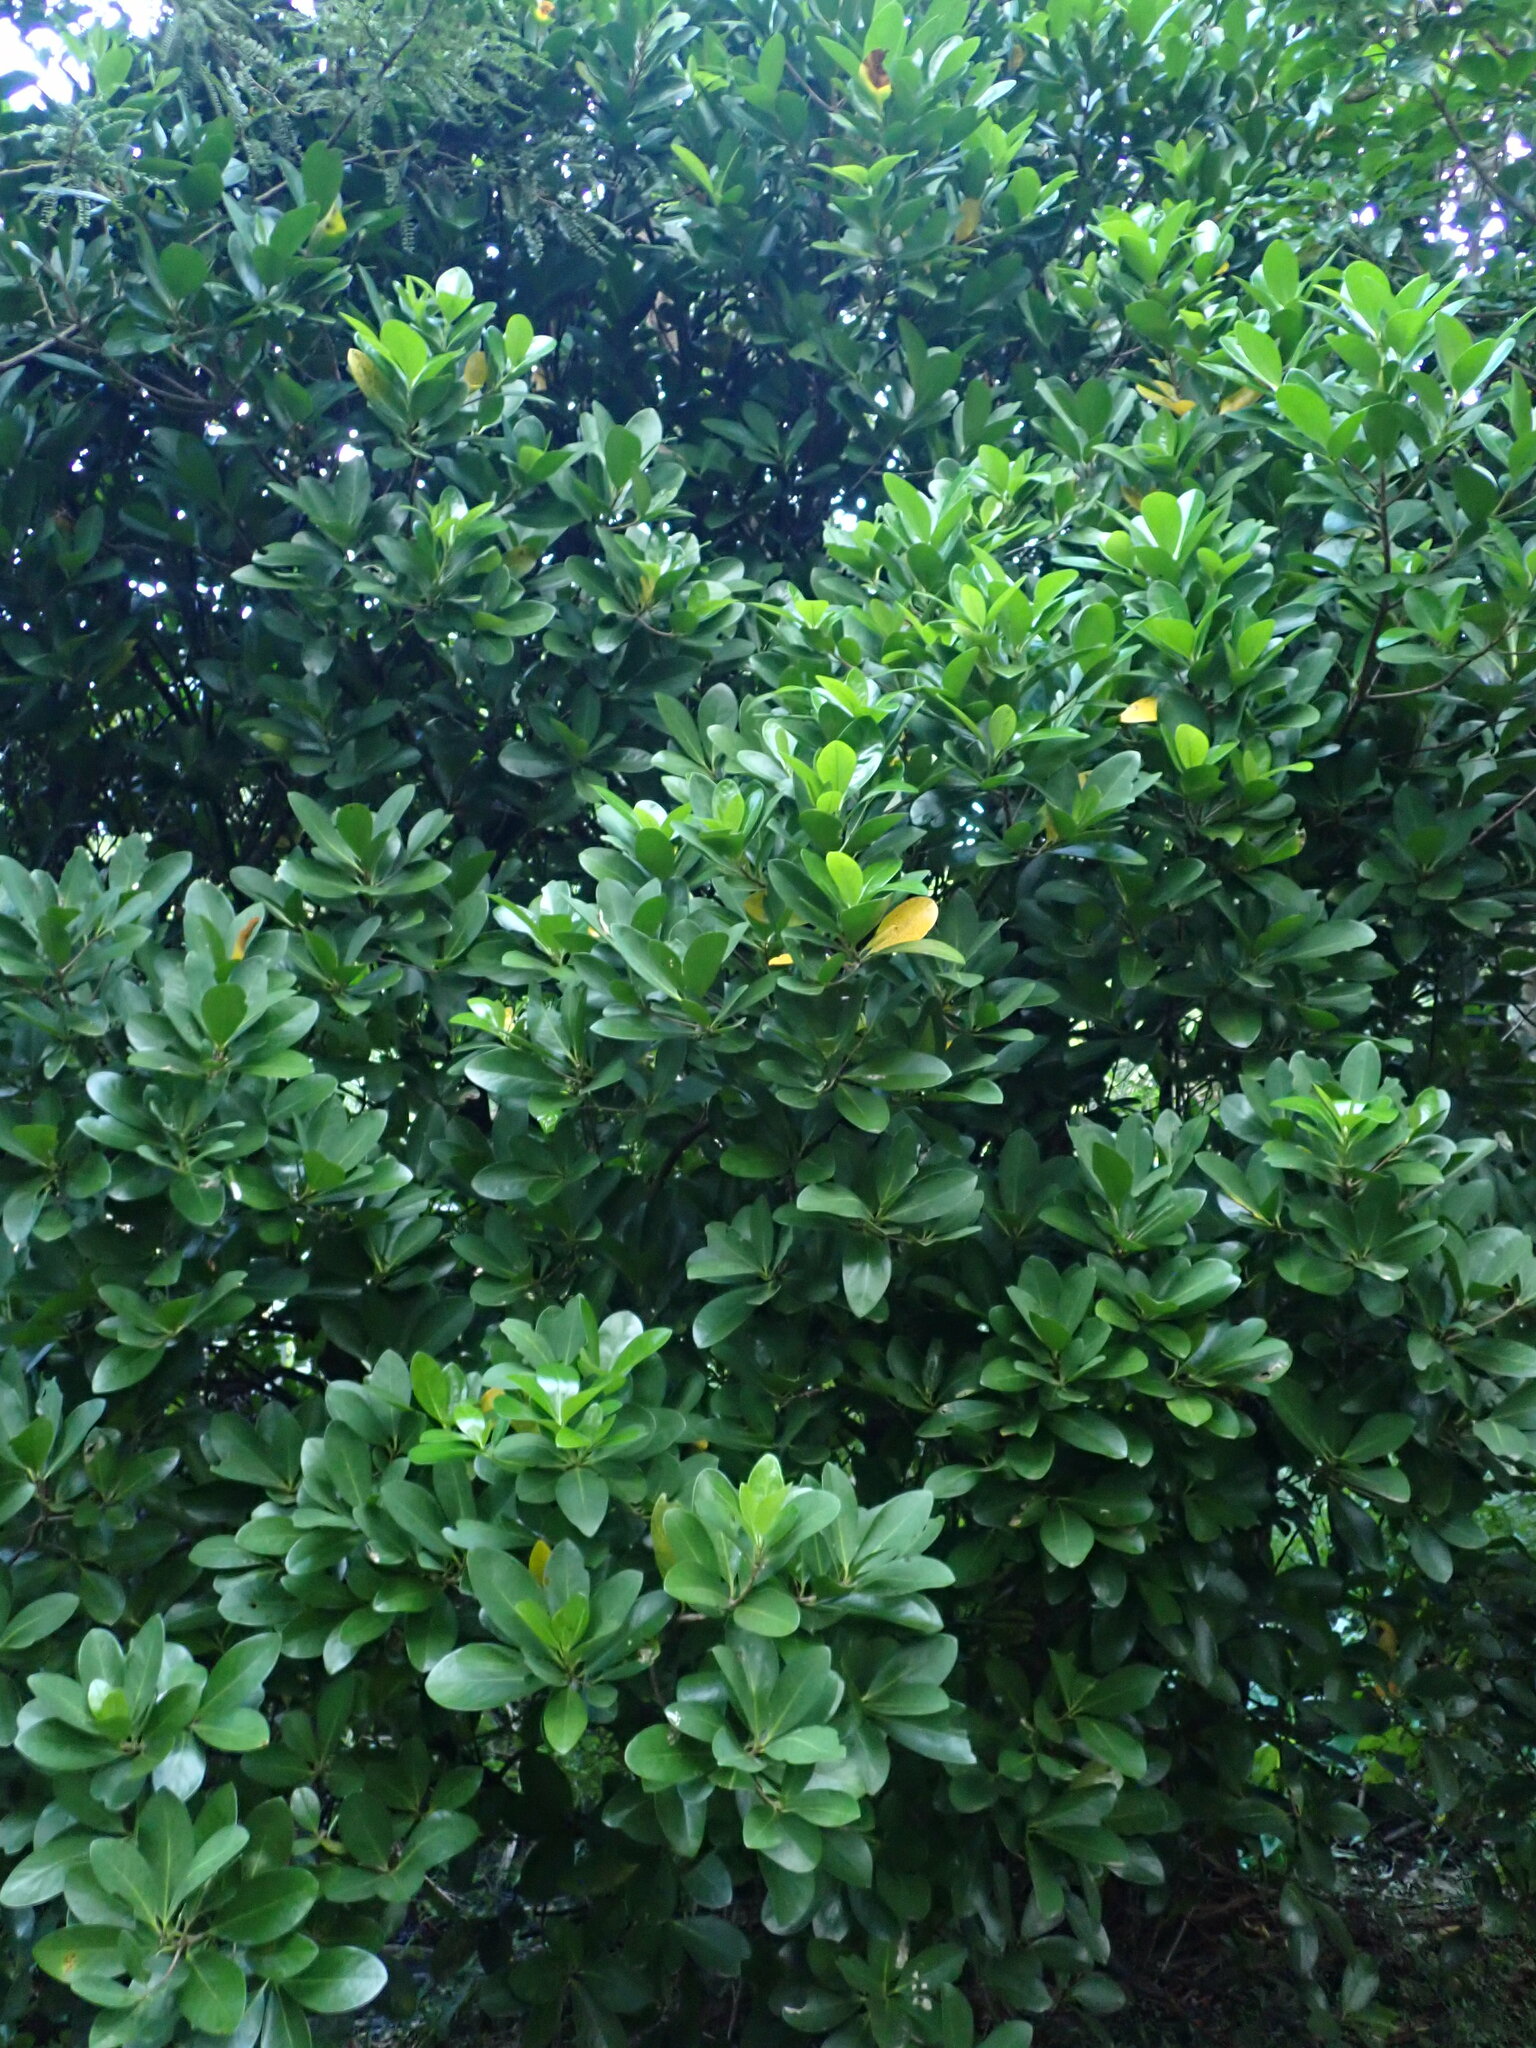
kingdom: Plantae
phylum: Tracheophyta
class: Magnoliopsida
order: Cucurbitales
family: Corynocarpaceae
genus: Corynocarpus
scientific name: Corynocarpus laevigatus
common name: New zealand laurel
